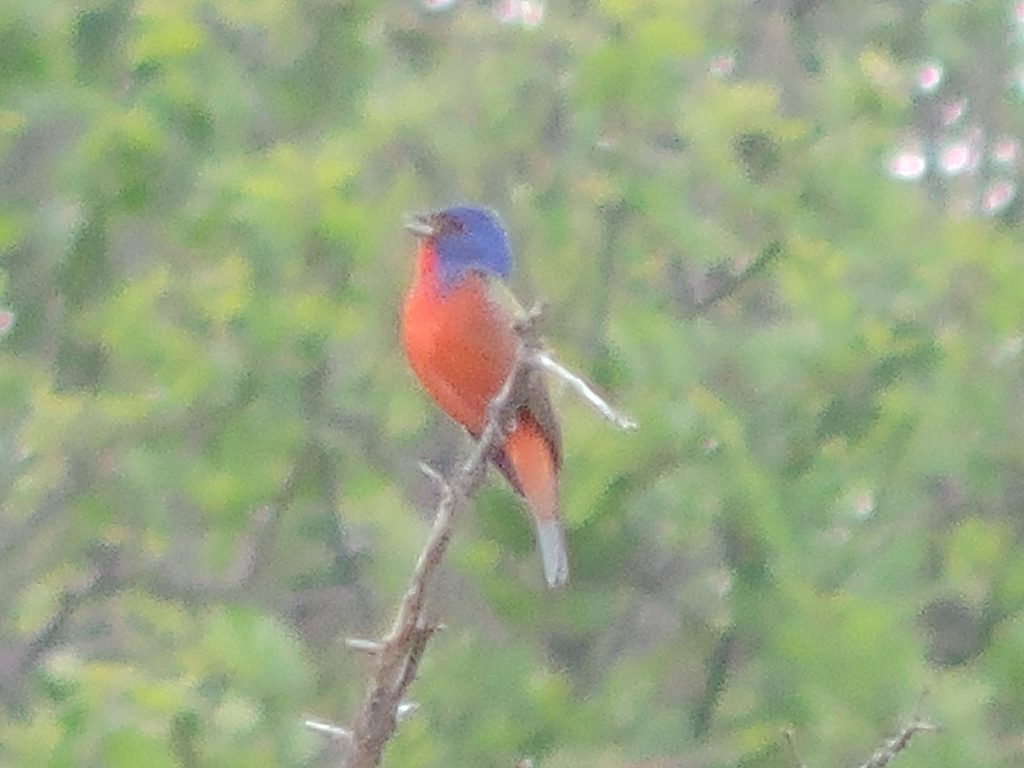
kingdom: Animalia
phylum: Chordata
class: Aves
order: Passeriformes
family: Cardinalidae
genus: Passerina
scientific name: Passerina ciris
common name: Painted bunting
